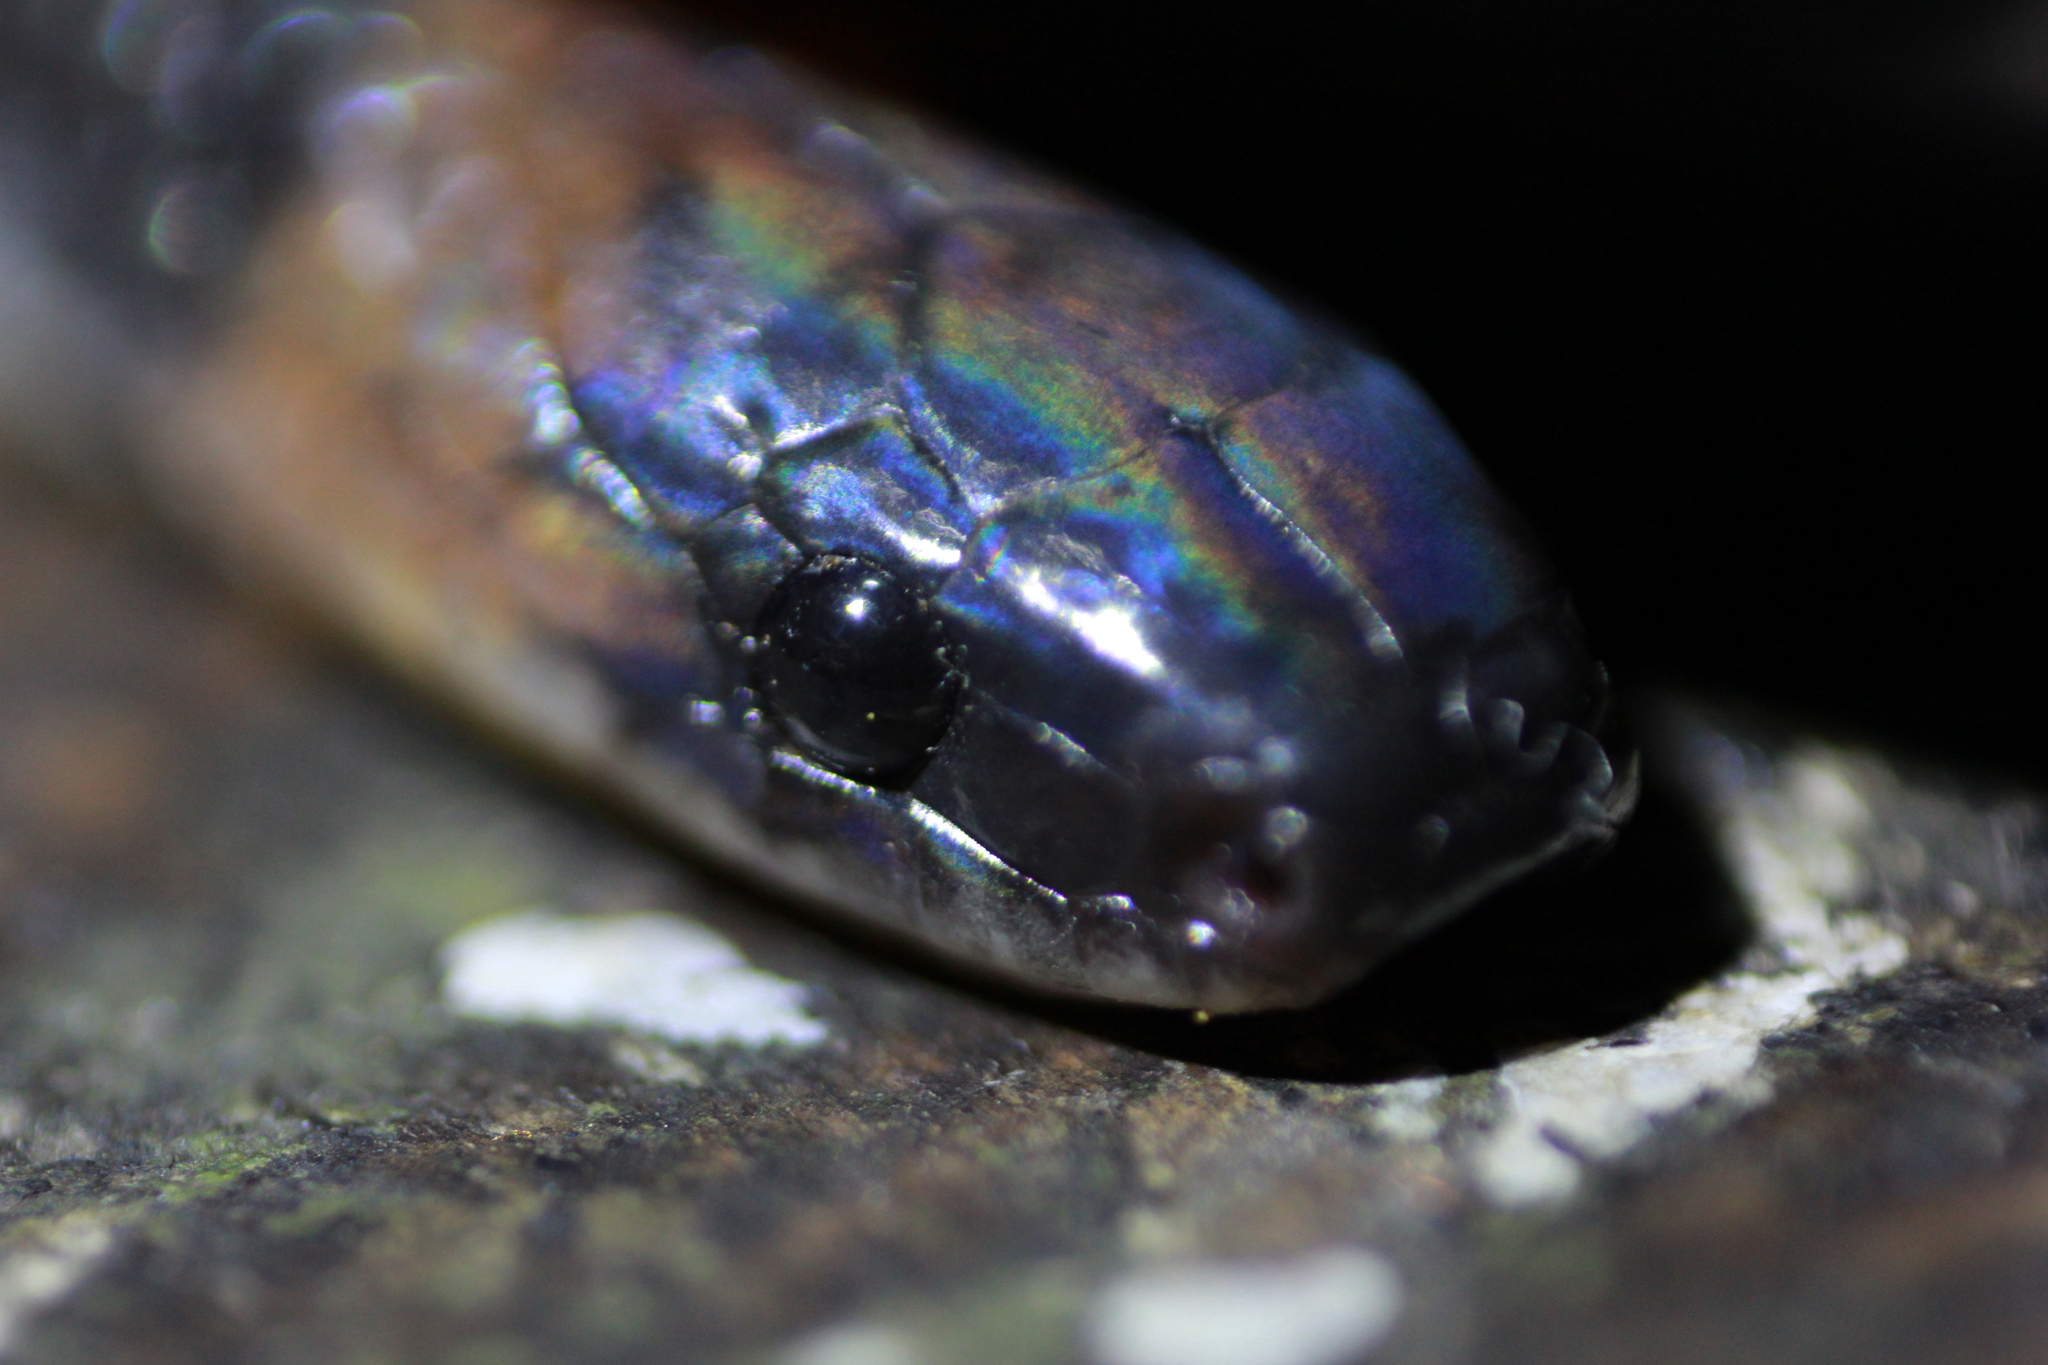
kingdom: Animalia
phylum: Chordata
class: Squamata
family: Colubridae
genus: Ninia
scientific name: Ninia atrata
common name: Hallowell's coffee snake
